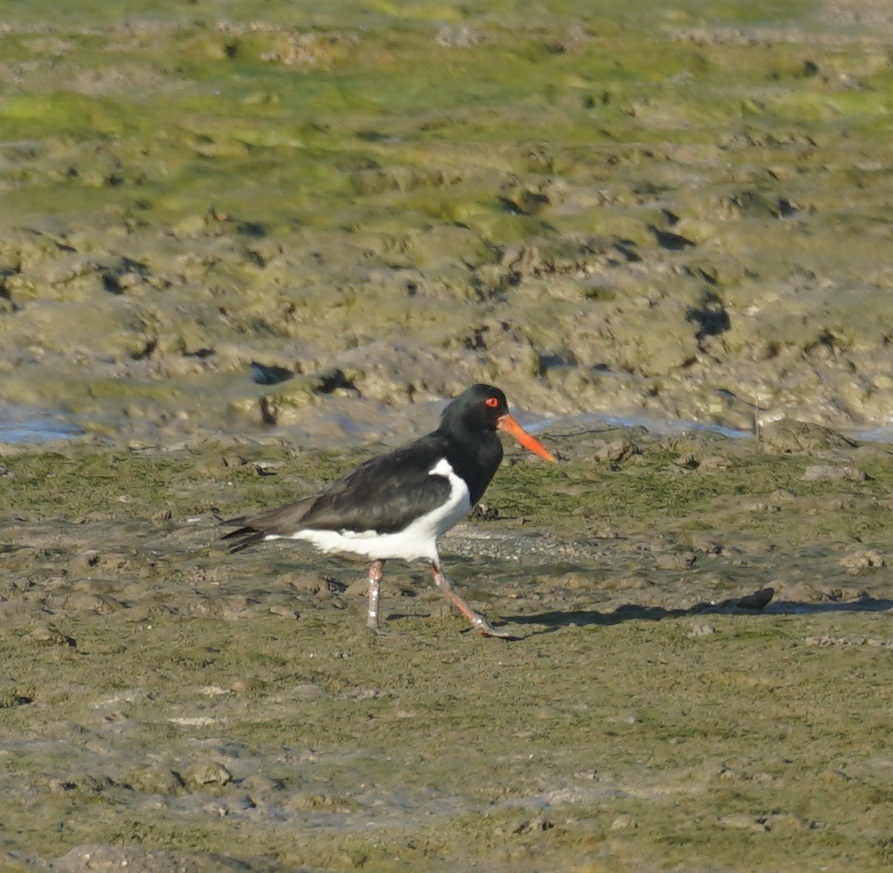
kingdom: Animalia
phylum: Chordata
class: Aves
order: Charadriiformes
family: Haematopodidae
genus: Haematopus
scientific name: Haematopus longirostris
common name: Pied oystercatcher
